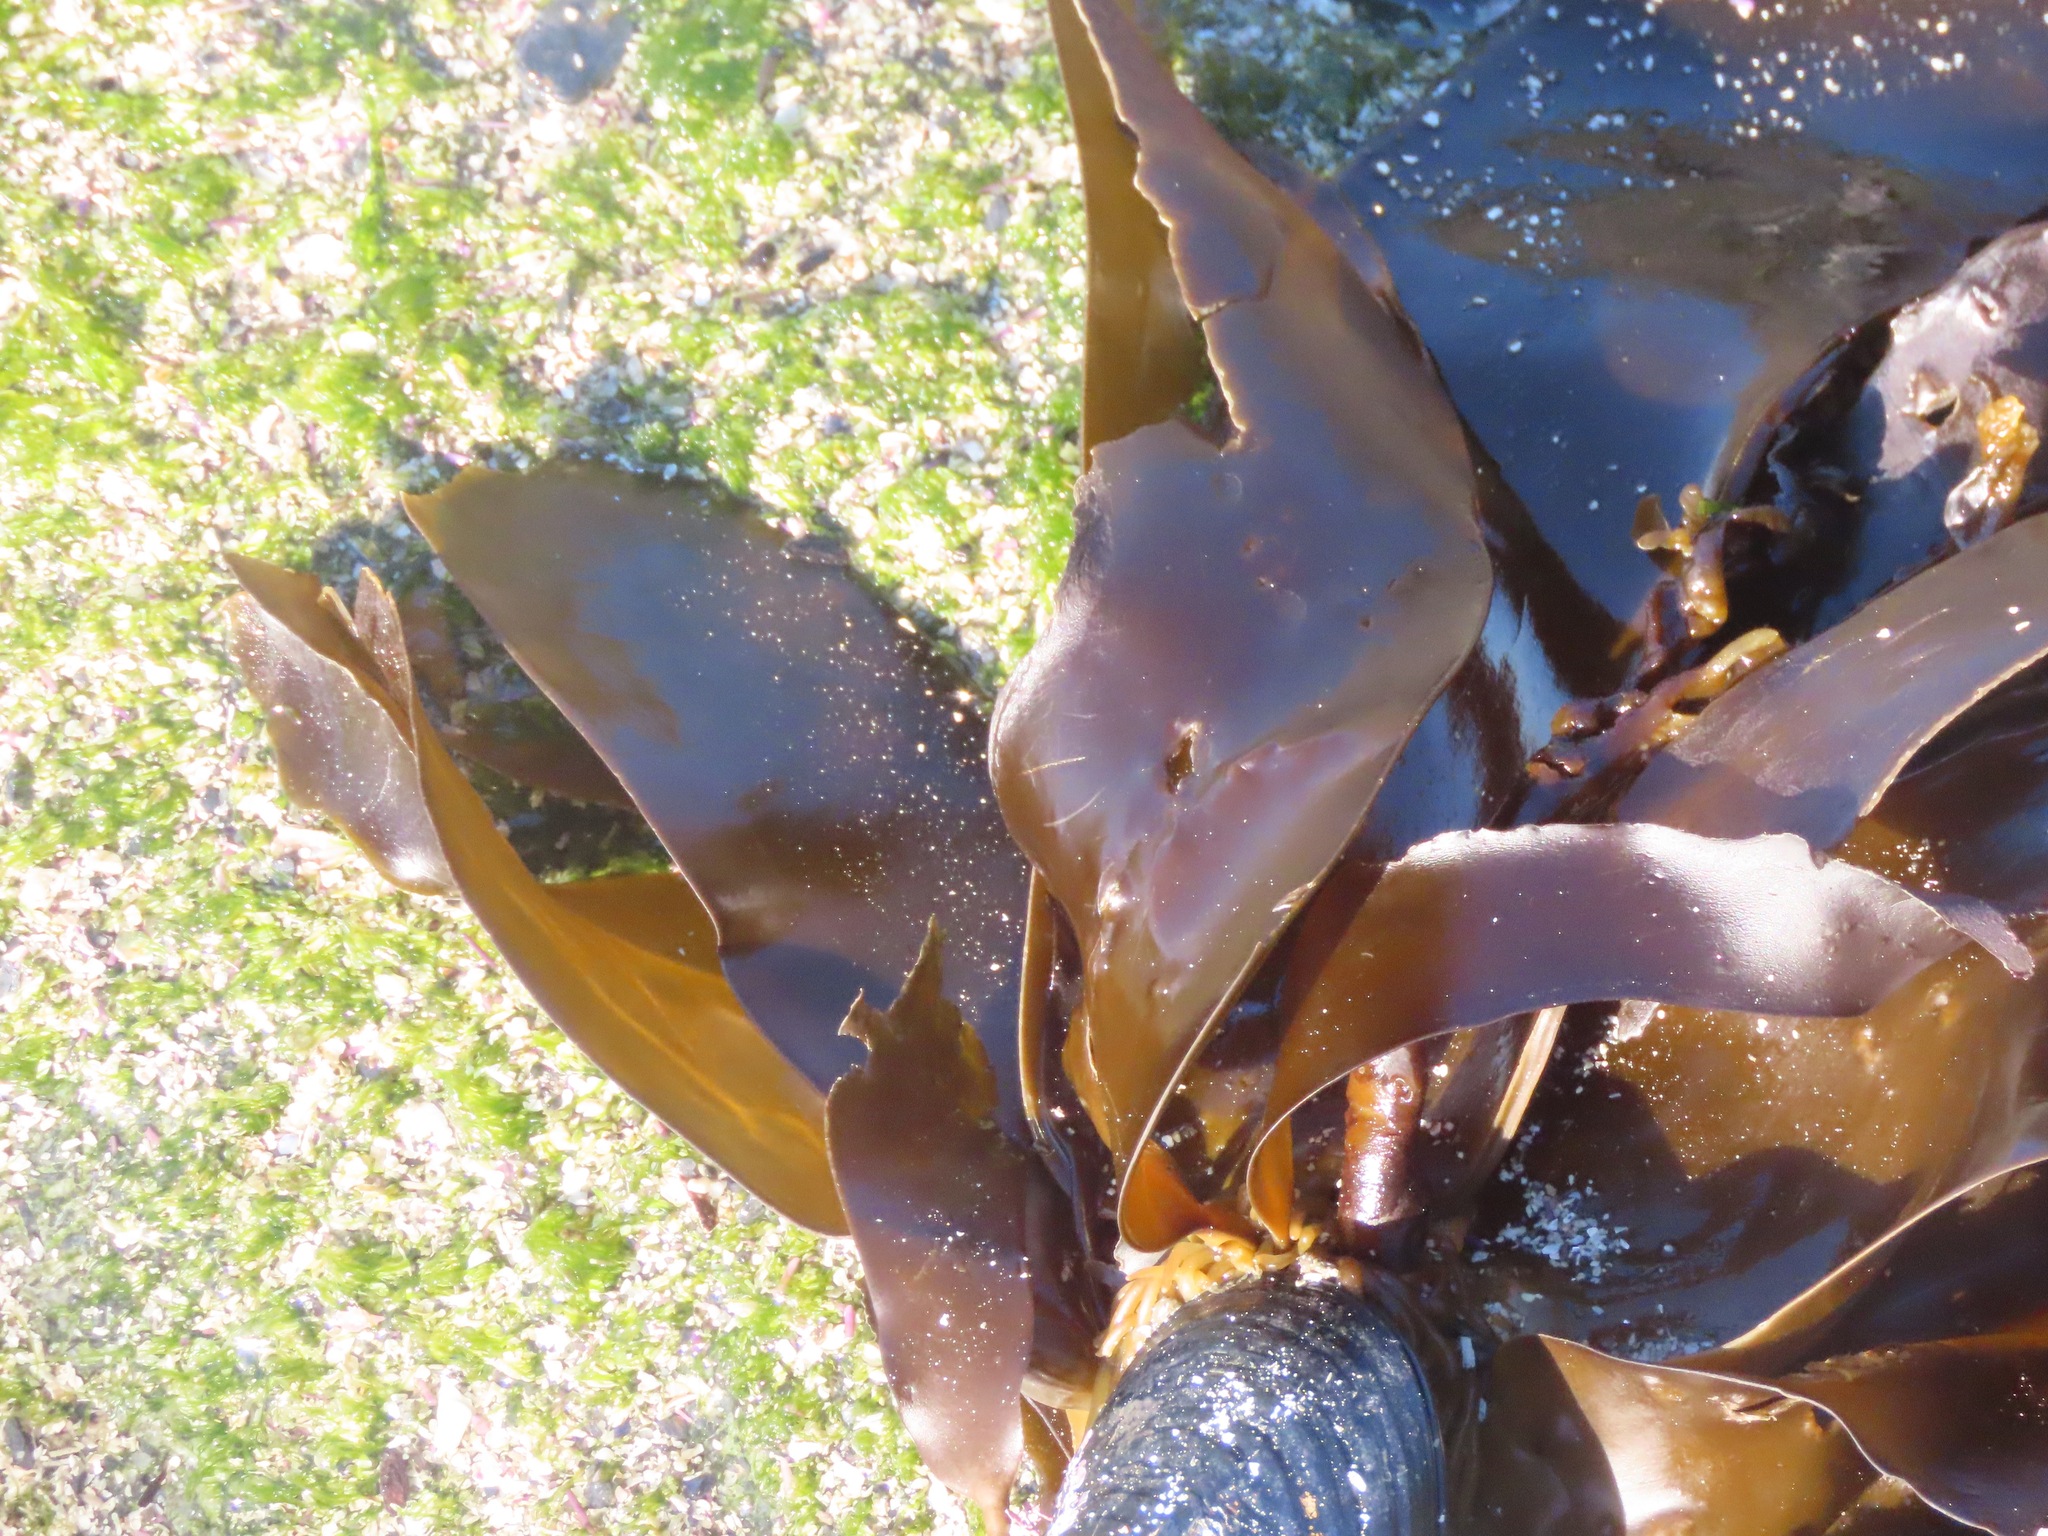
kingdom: Chromista
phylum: Ochrophyta
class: Phaeophyceae
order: Laminariales
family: Laminariaceae
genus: Hedophyllum
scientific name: Hedophyllum sessile
